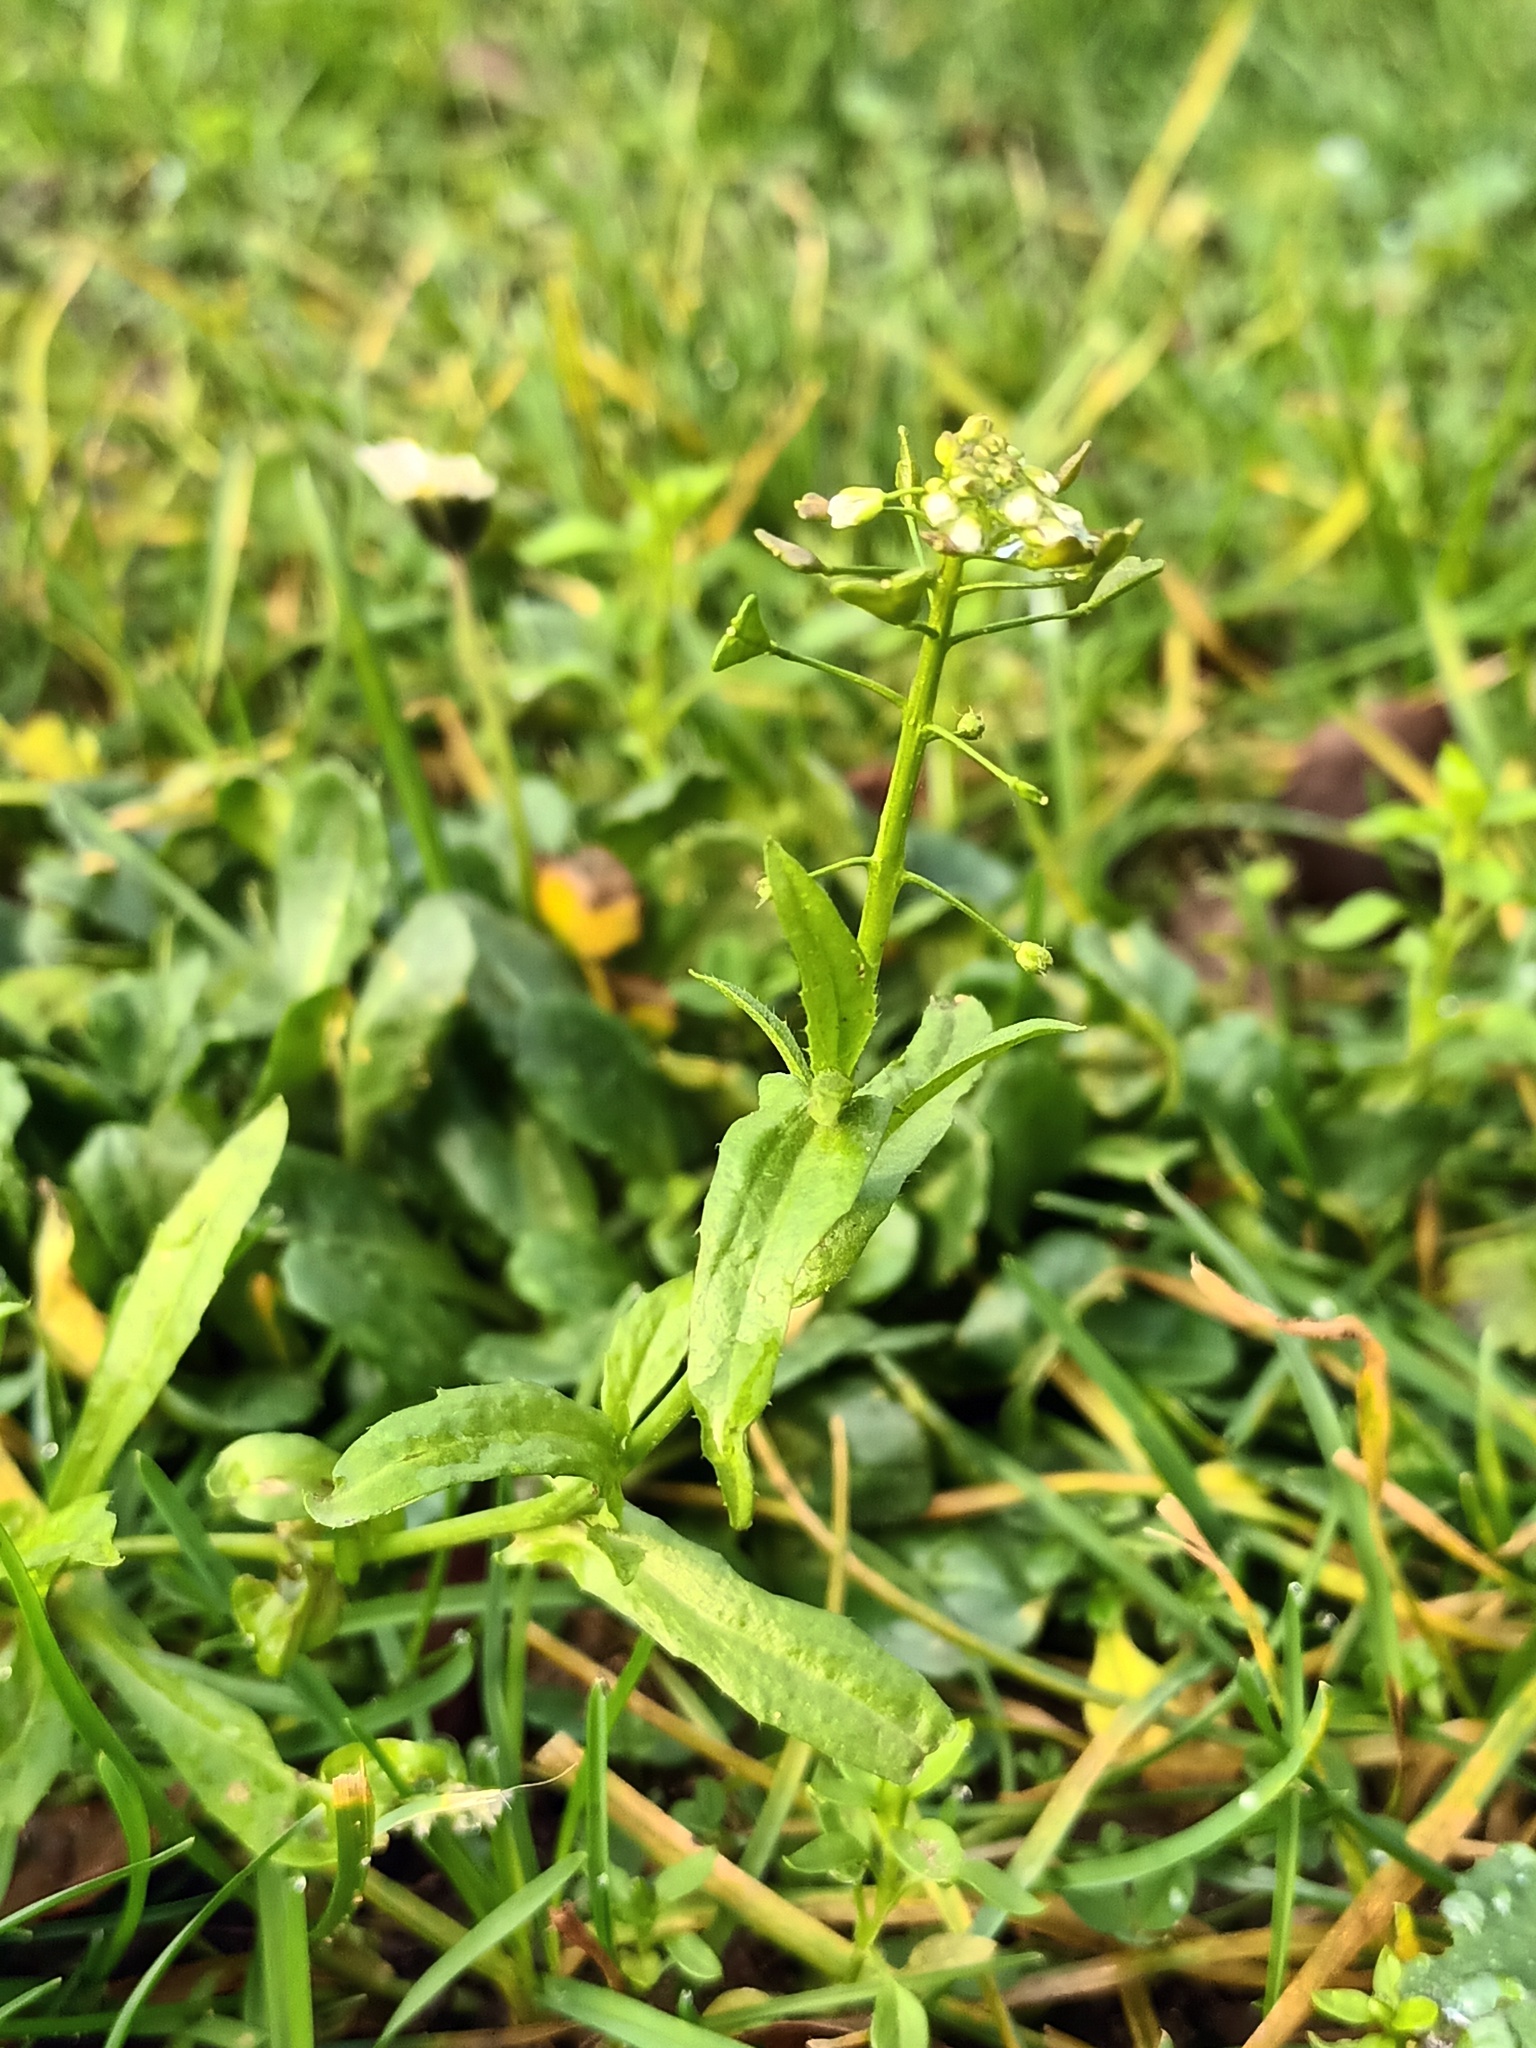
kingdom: Plantae
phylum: Tracheophyta
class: Magnoliopsida
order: Brassicales
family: Brassicaceae
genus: Capsella
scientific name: Capsella bursa-pastoris
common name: Shepherd's purse
